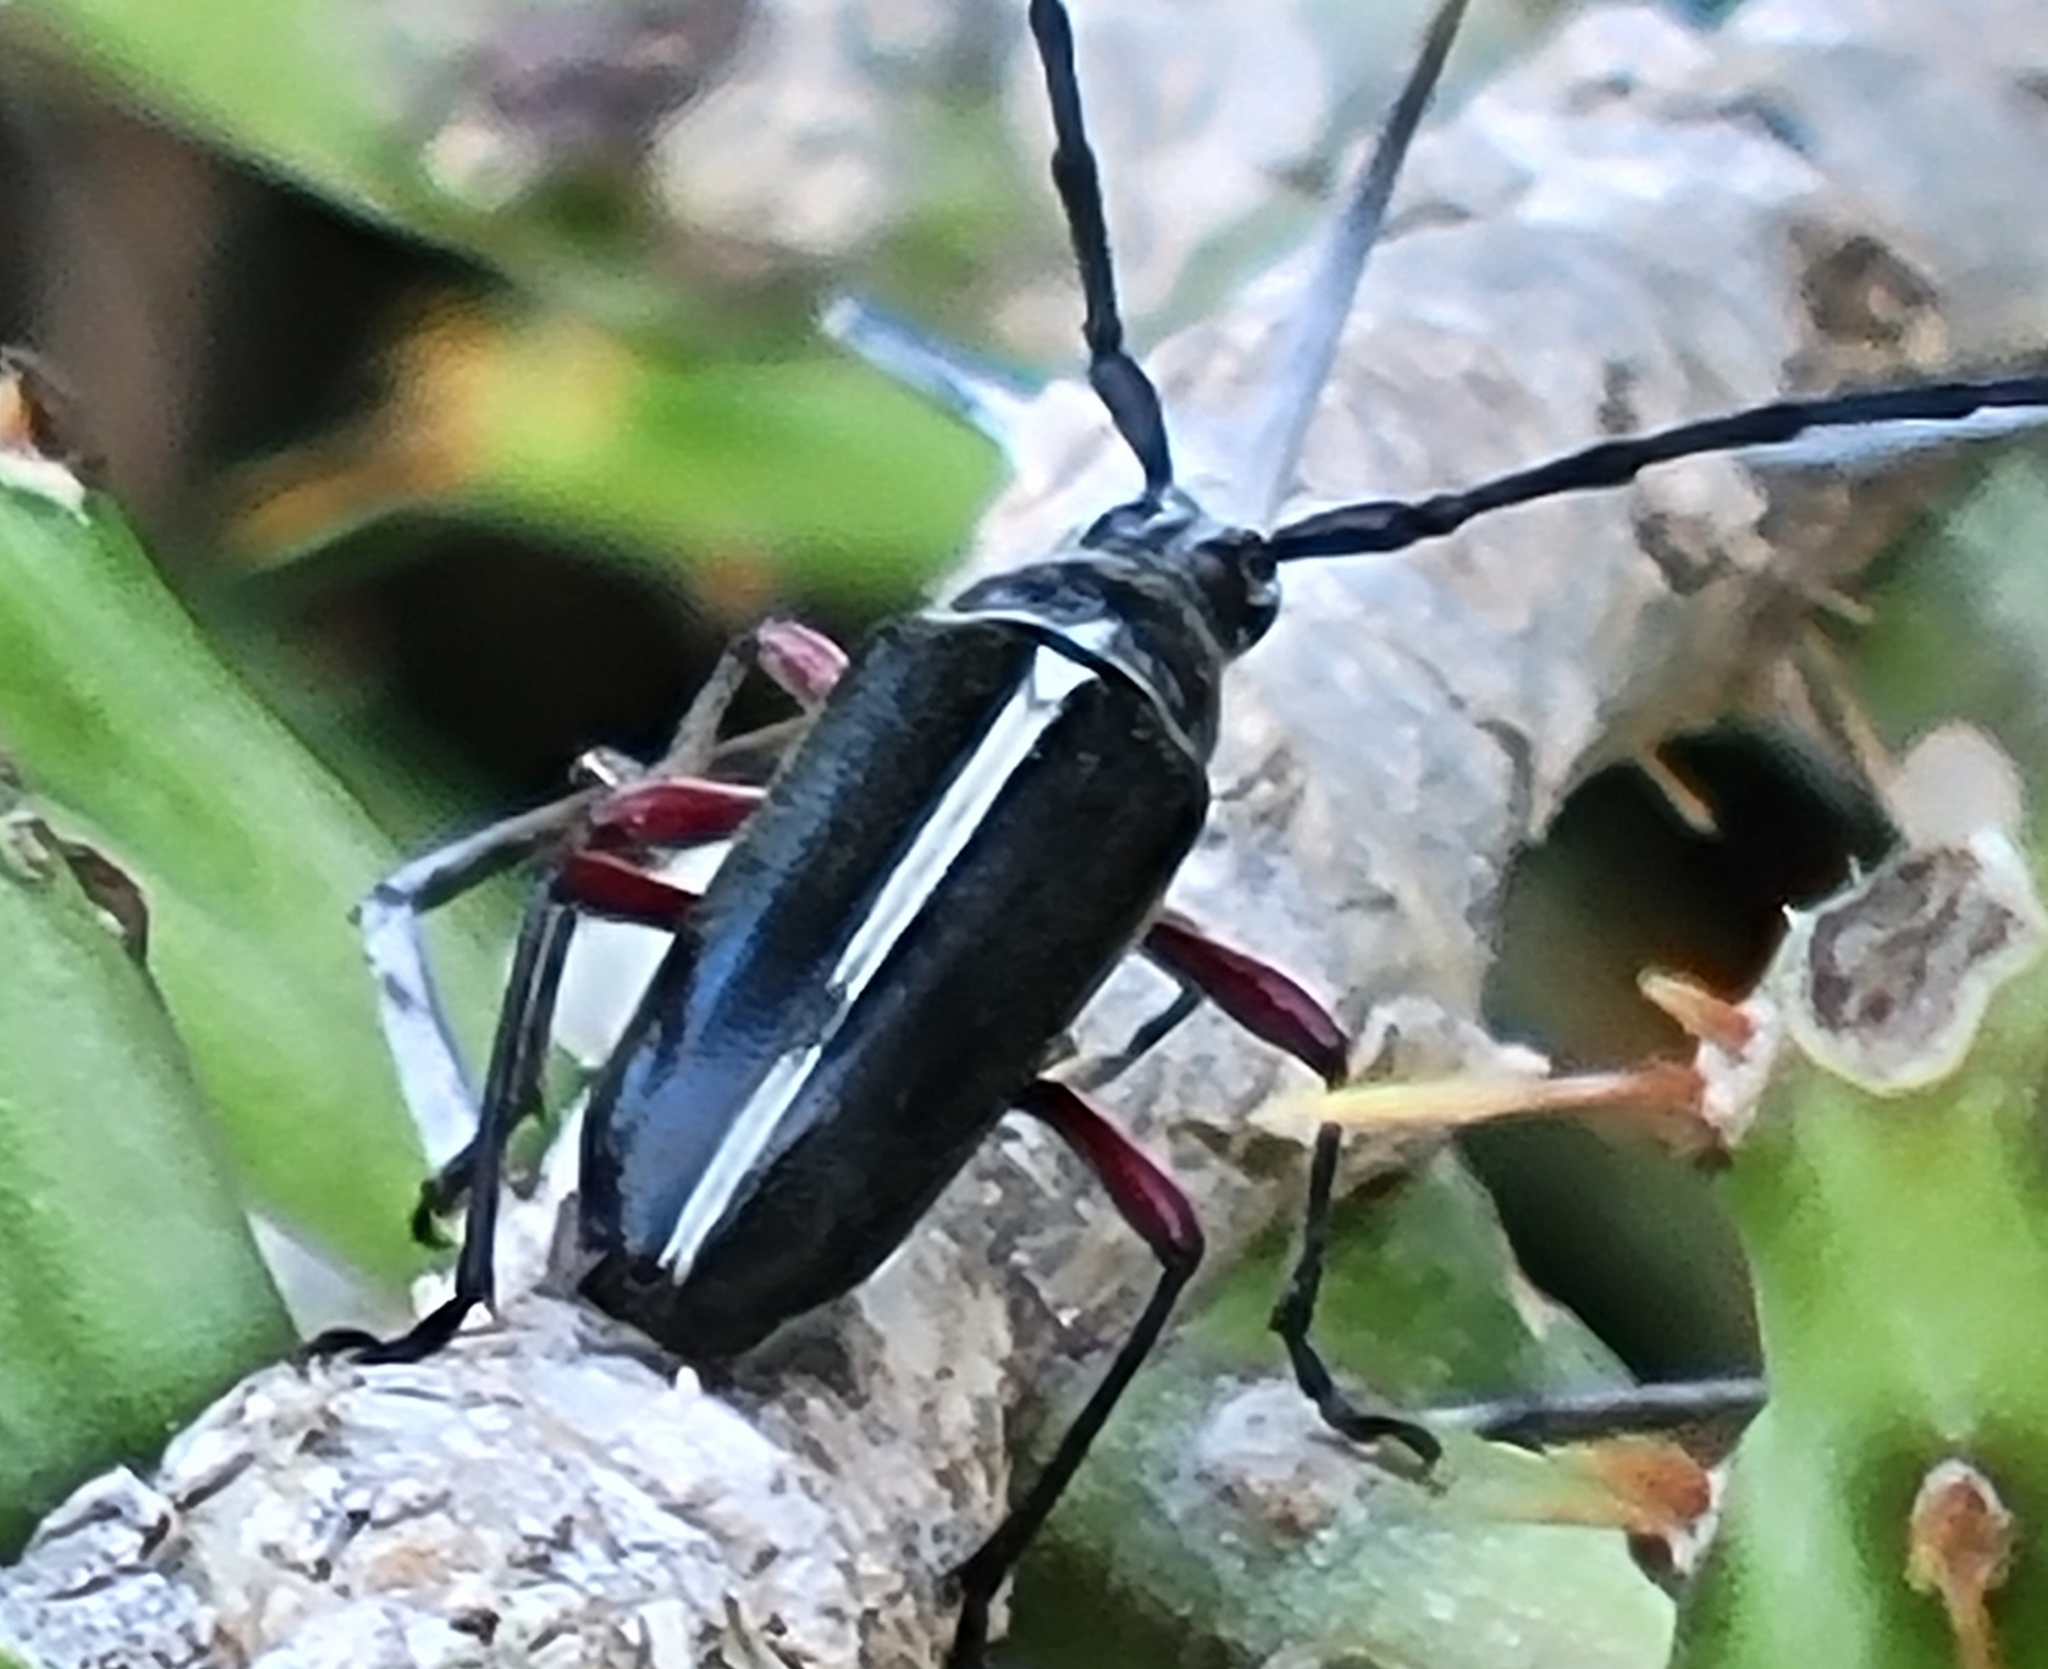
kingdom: Animalia
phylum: Arthropoda
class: Insecta
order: Coleoptera
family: Cerambycidae
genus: Plionoma
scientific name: Plionoma suturalis
